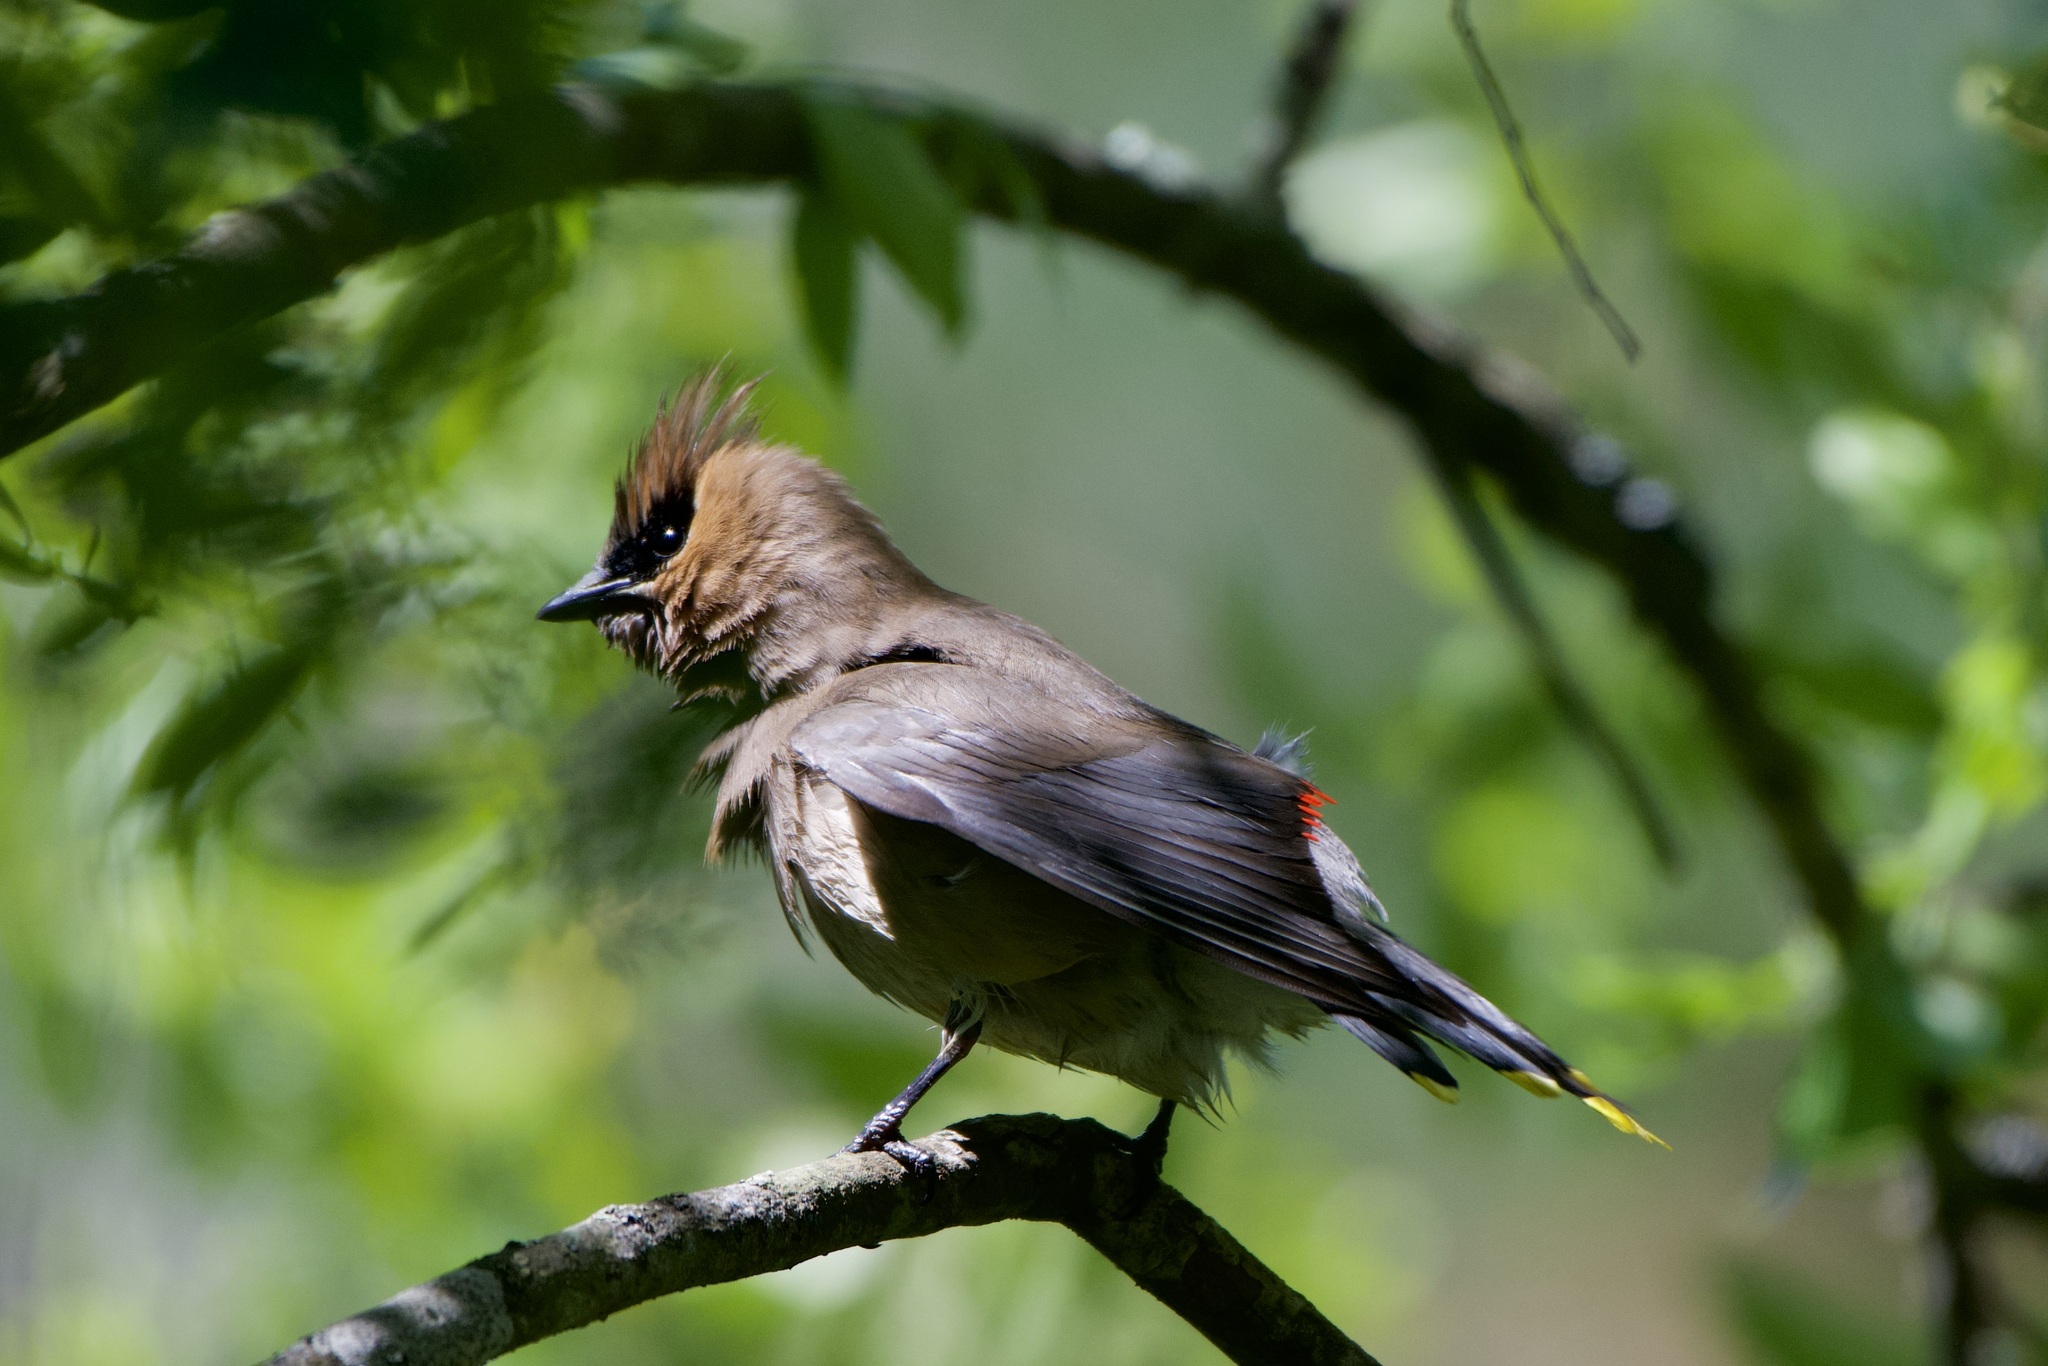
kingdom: Animalia
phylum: Chordata
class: Aves
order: Passeriformes
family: Bombycillidae
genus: Bombycilla
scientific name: Bombycilla cedrorum
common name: Cedar waxwing
